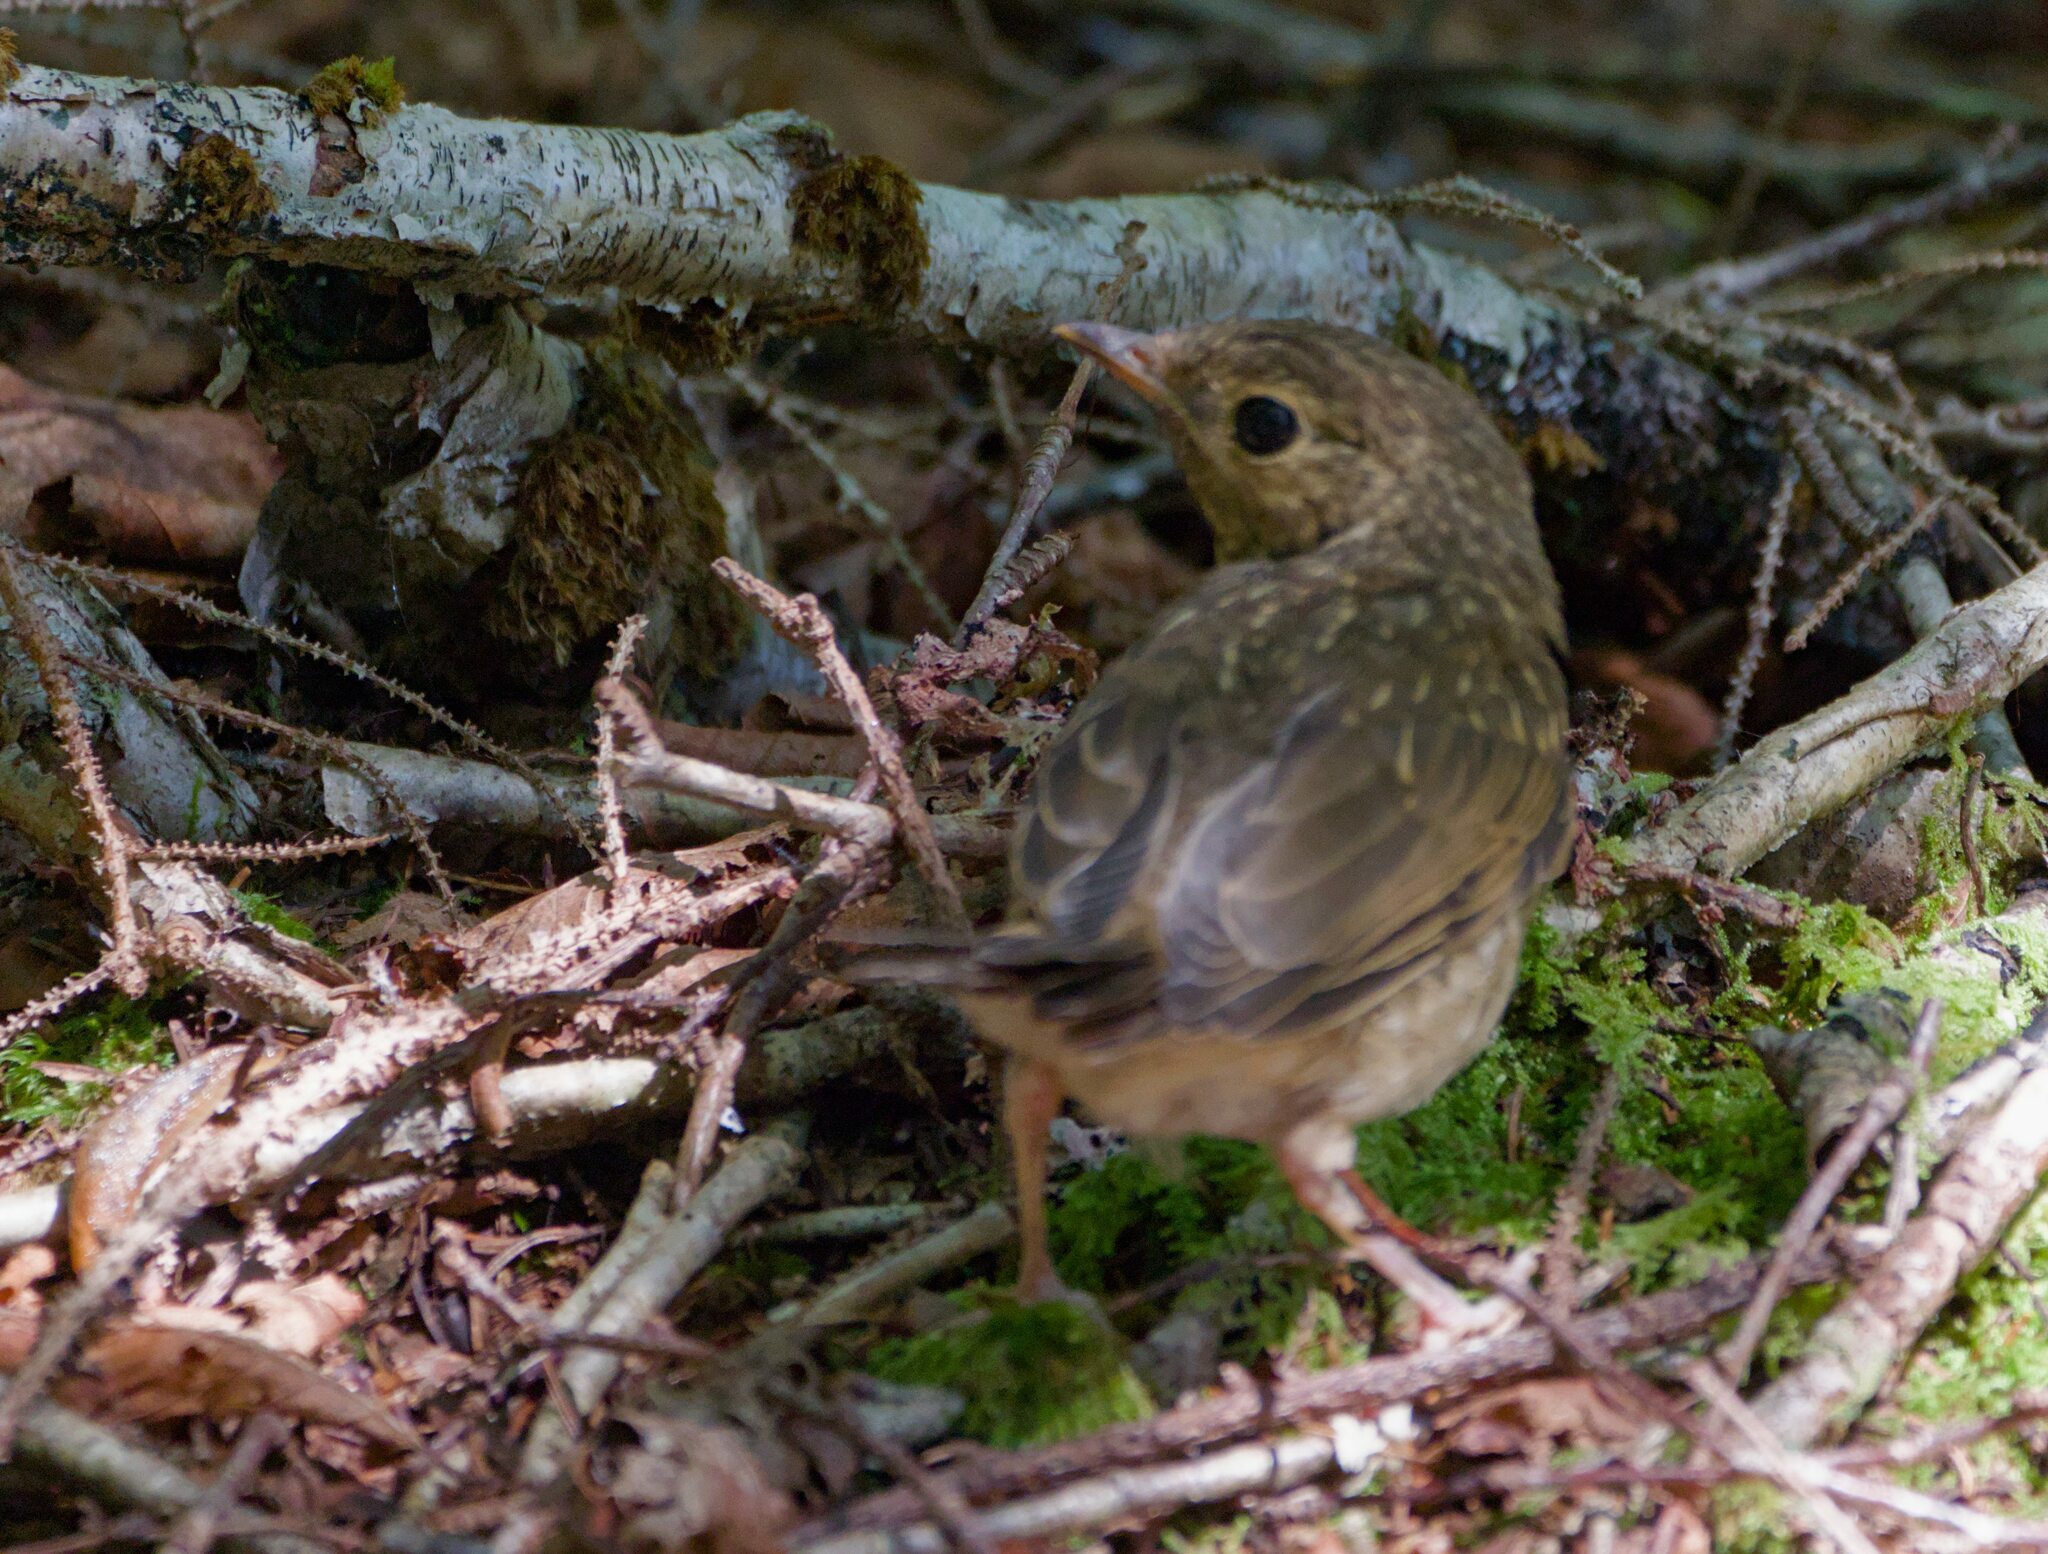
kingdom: Animalia
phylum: Chordata
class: Aves
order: Passeriformes
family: Turdidae
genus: Catharus
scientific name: Catharus ustulatus
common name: Swainson's thrush
